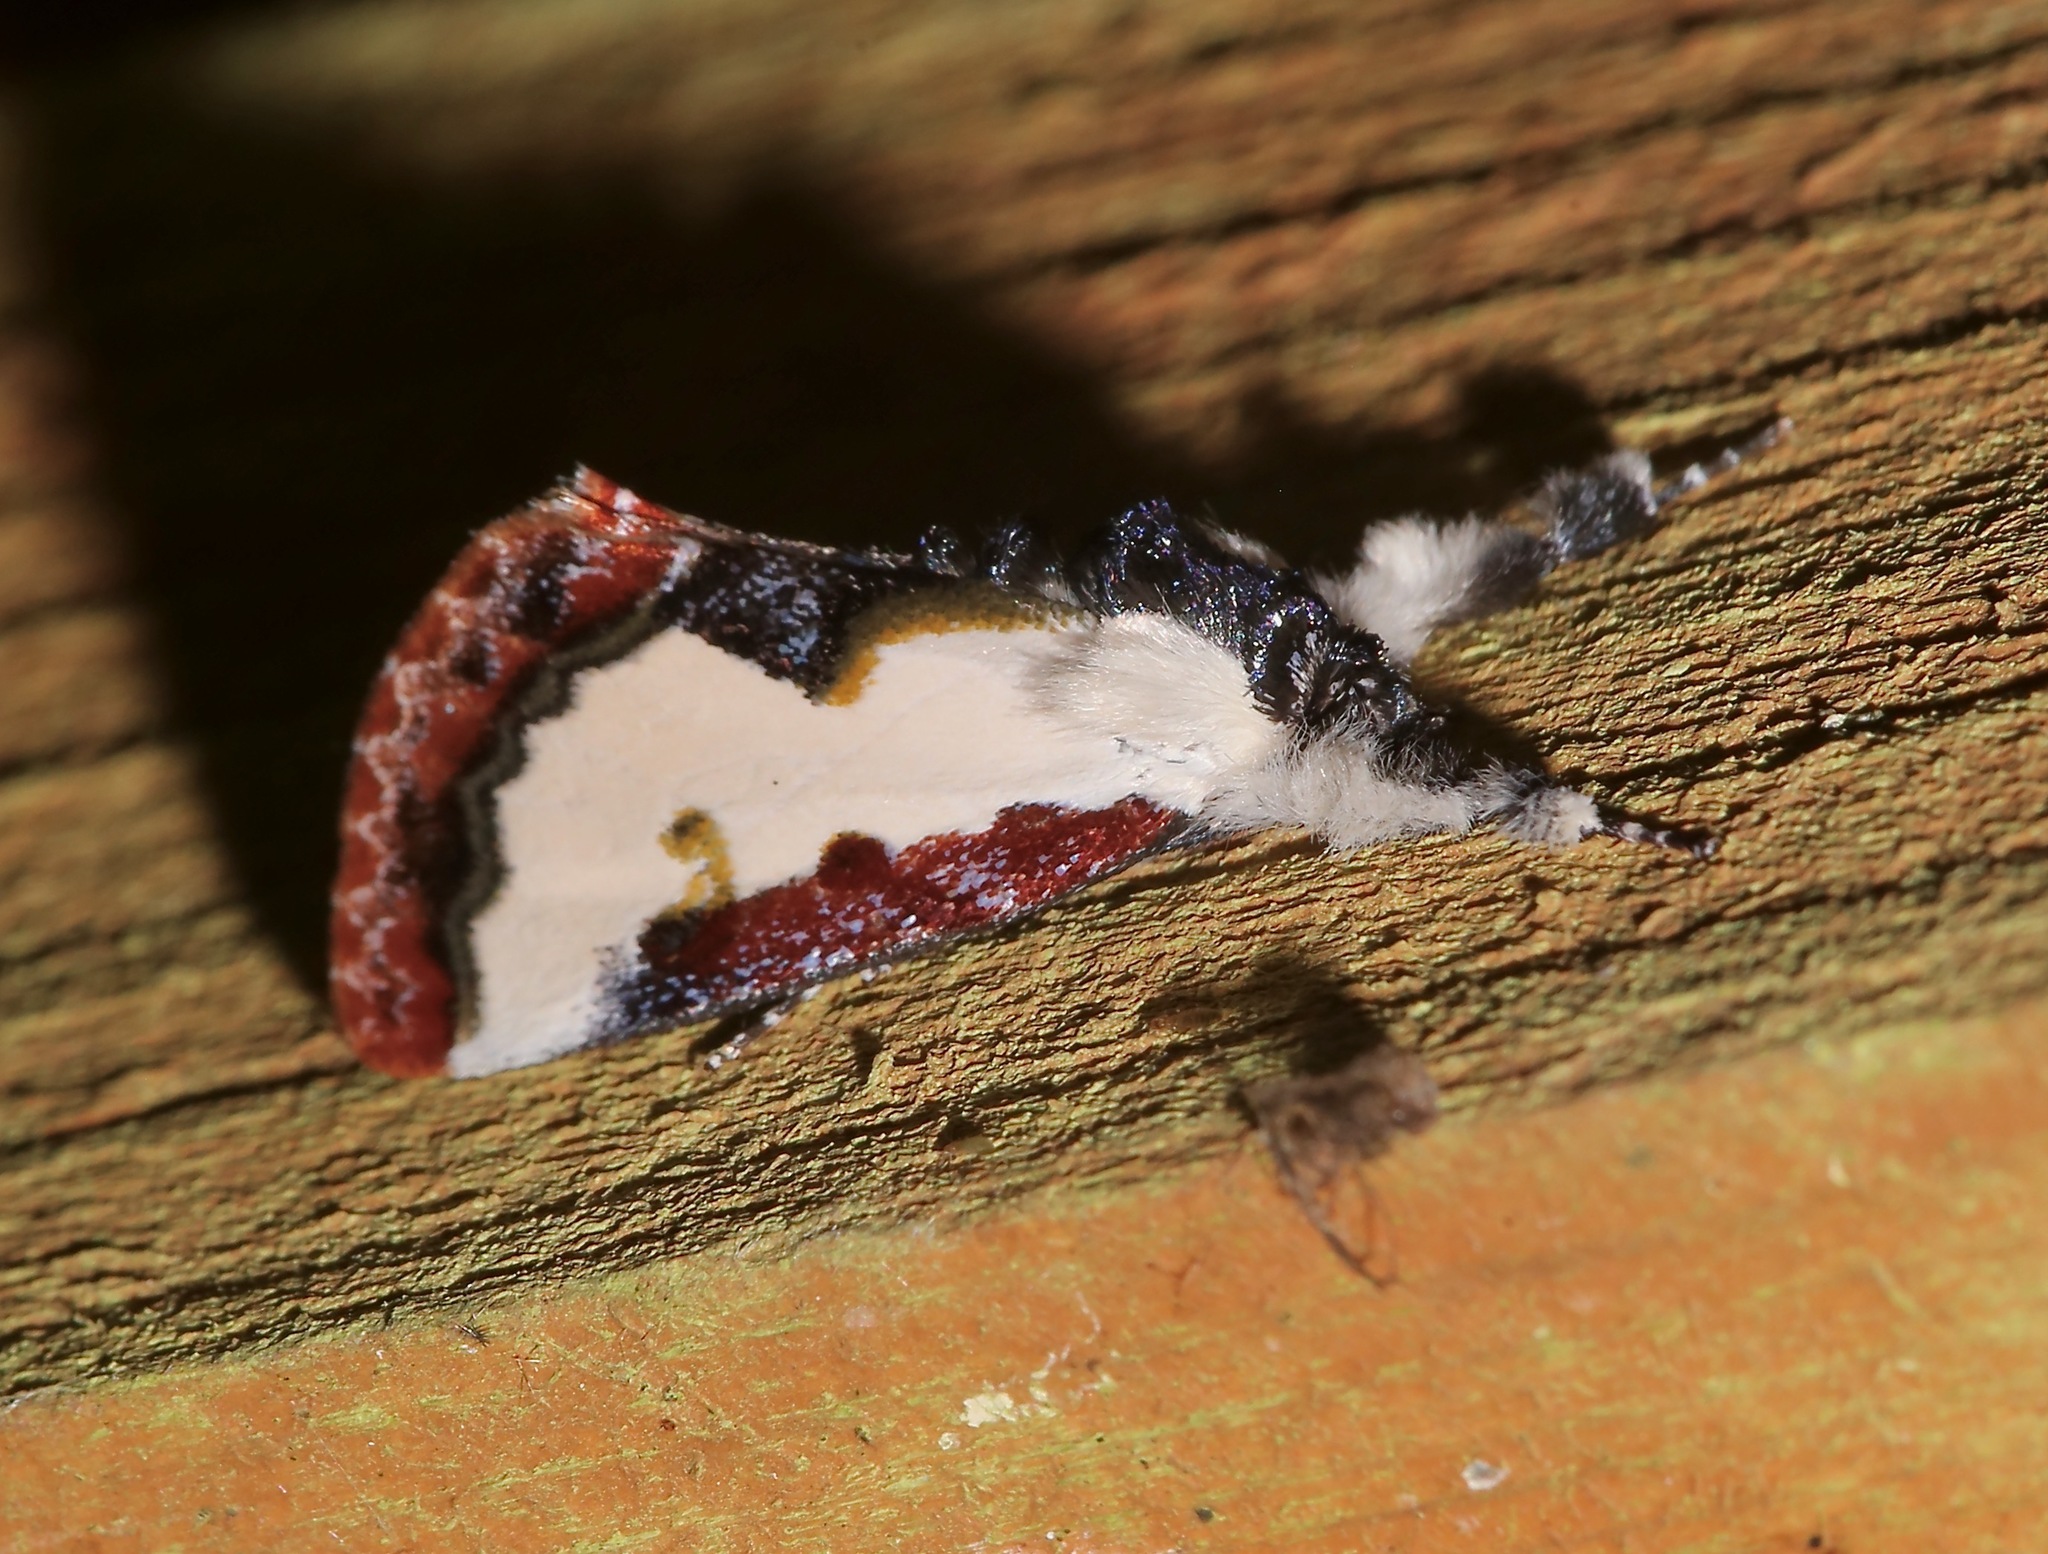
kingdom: Animalia
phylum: Arthropoda
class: Insecta
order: Lepidoptera
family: Noctuidae
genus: Eudryas
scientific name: Eudryas unio
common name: Pearly wood-nymph
